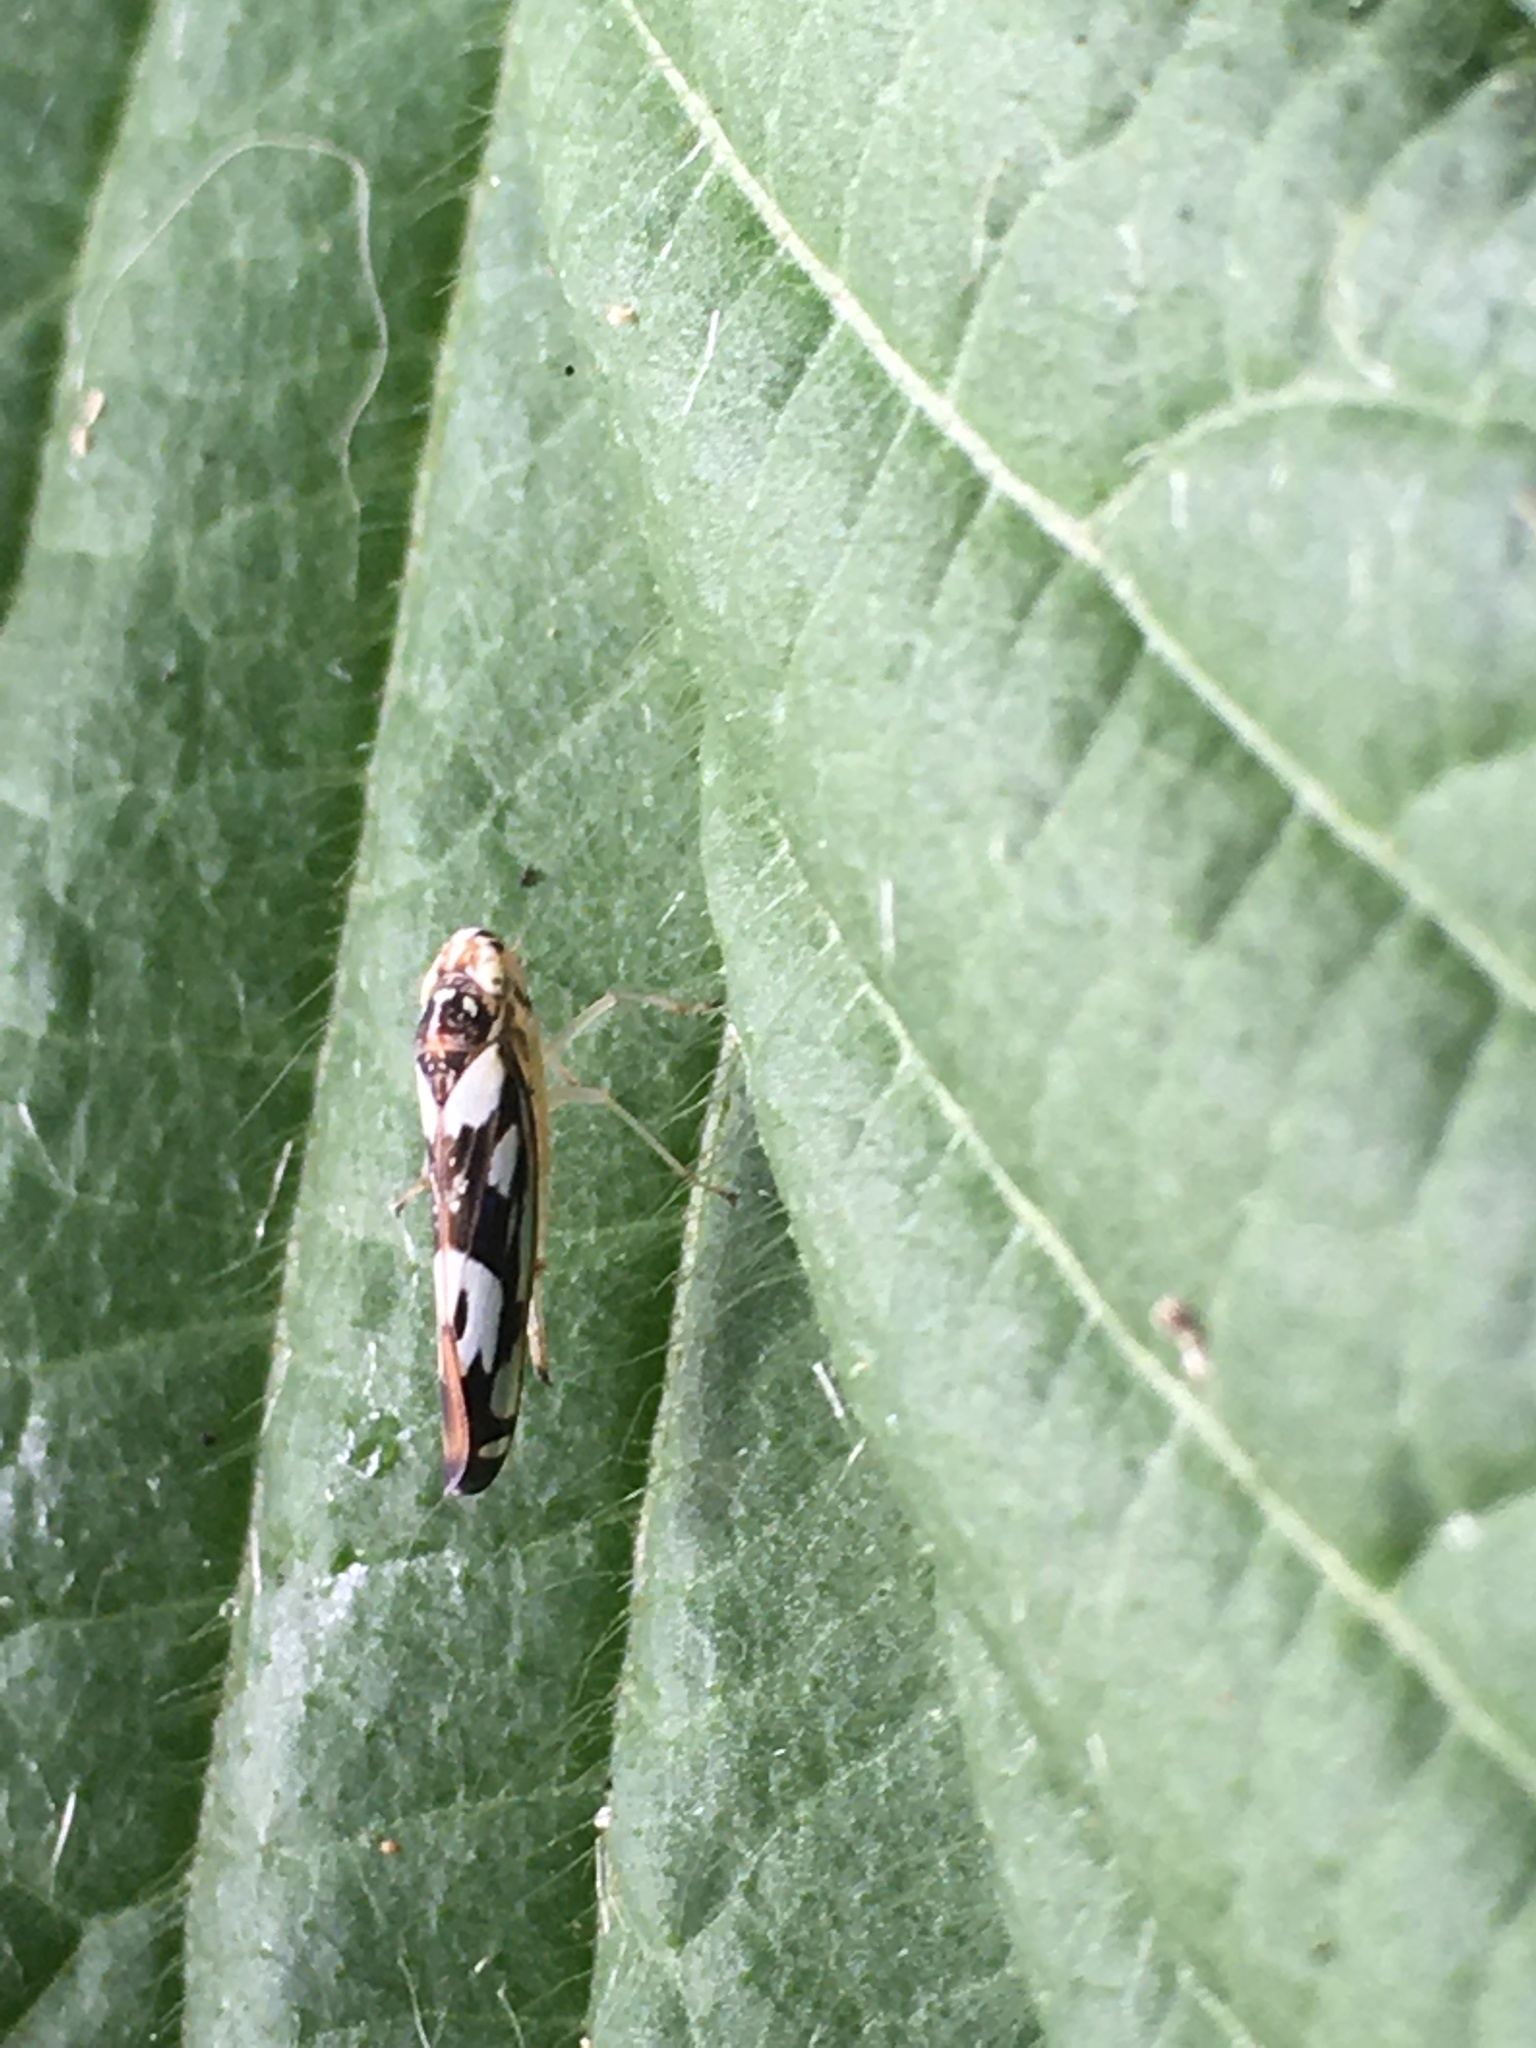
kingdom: Animalia
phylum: Arthropoda
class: Insecta
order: Hemiptera
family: Cicadellidae
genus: Sibovia
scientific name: Sibovia recta
